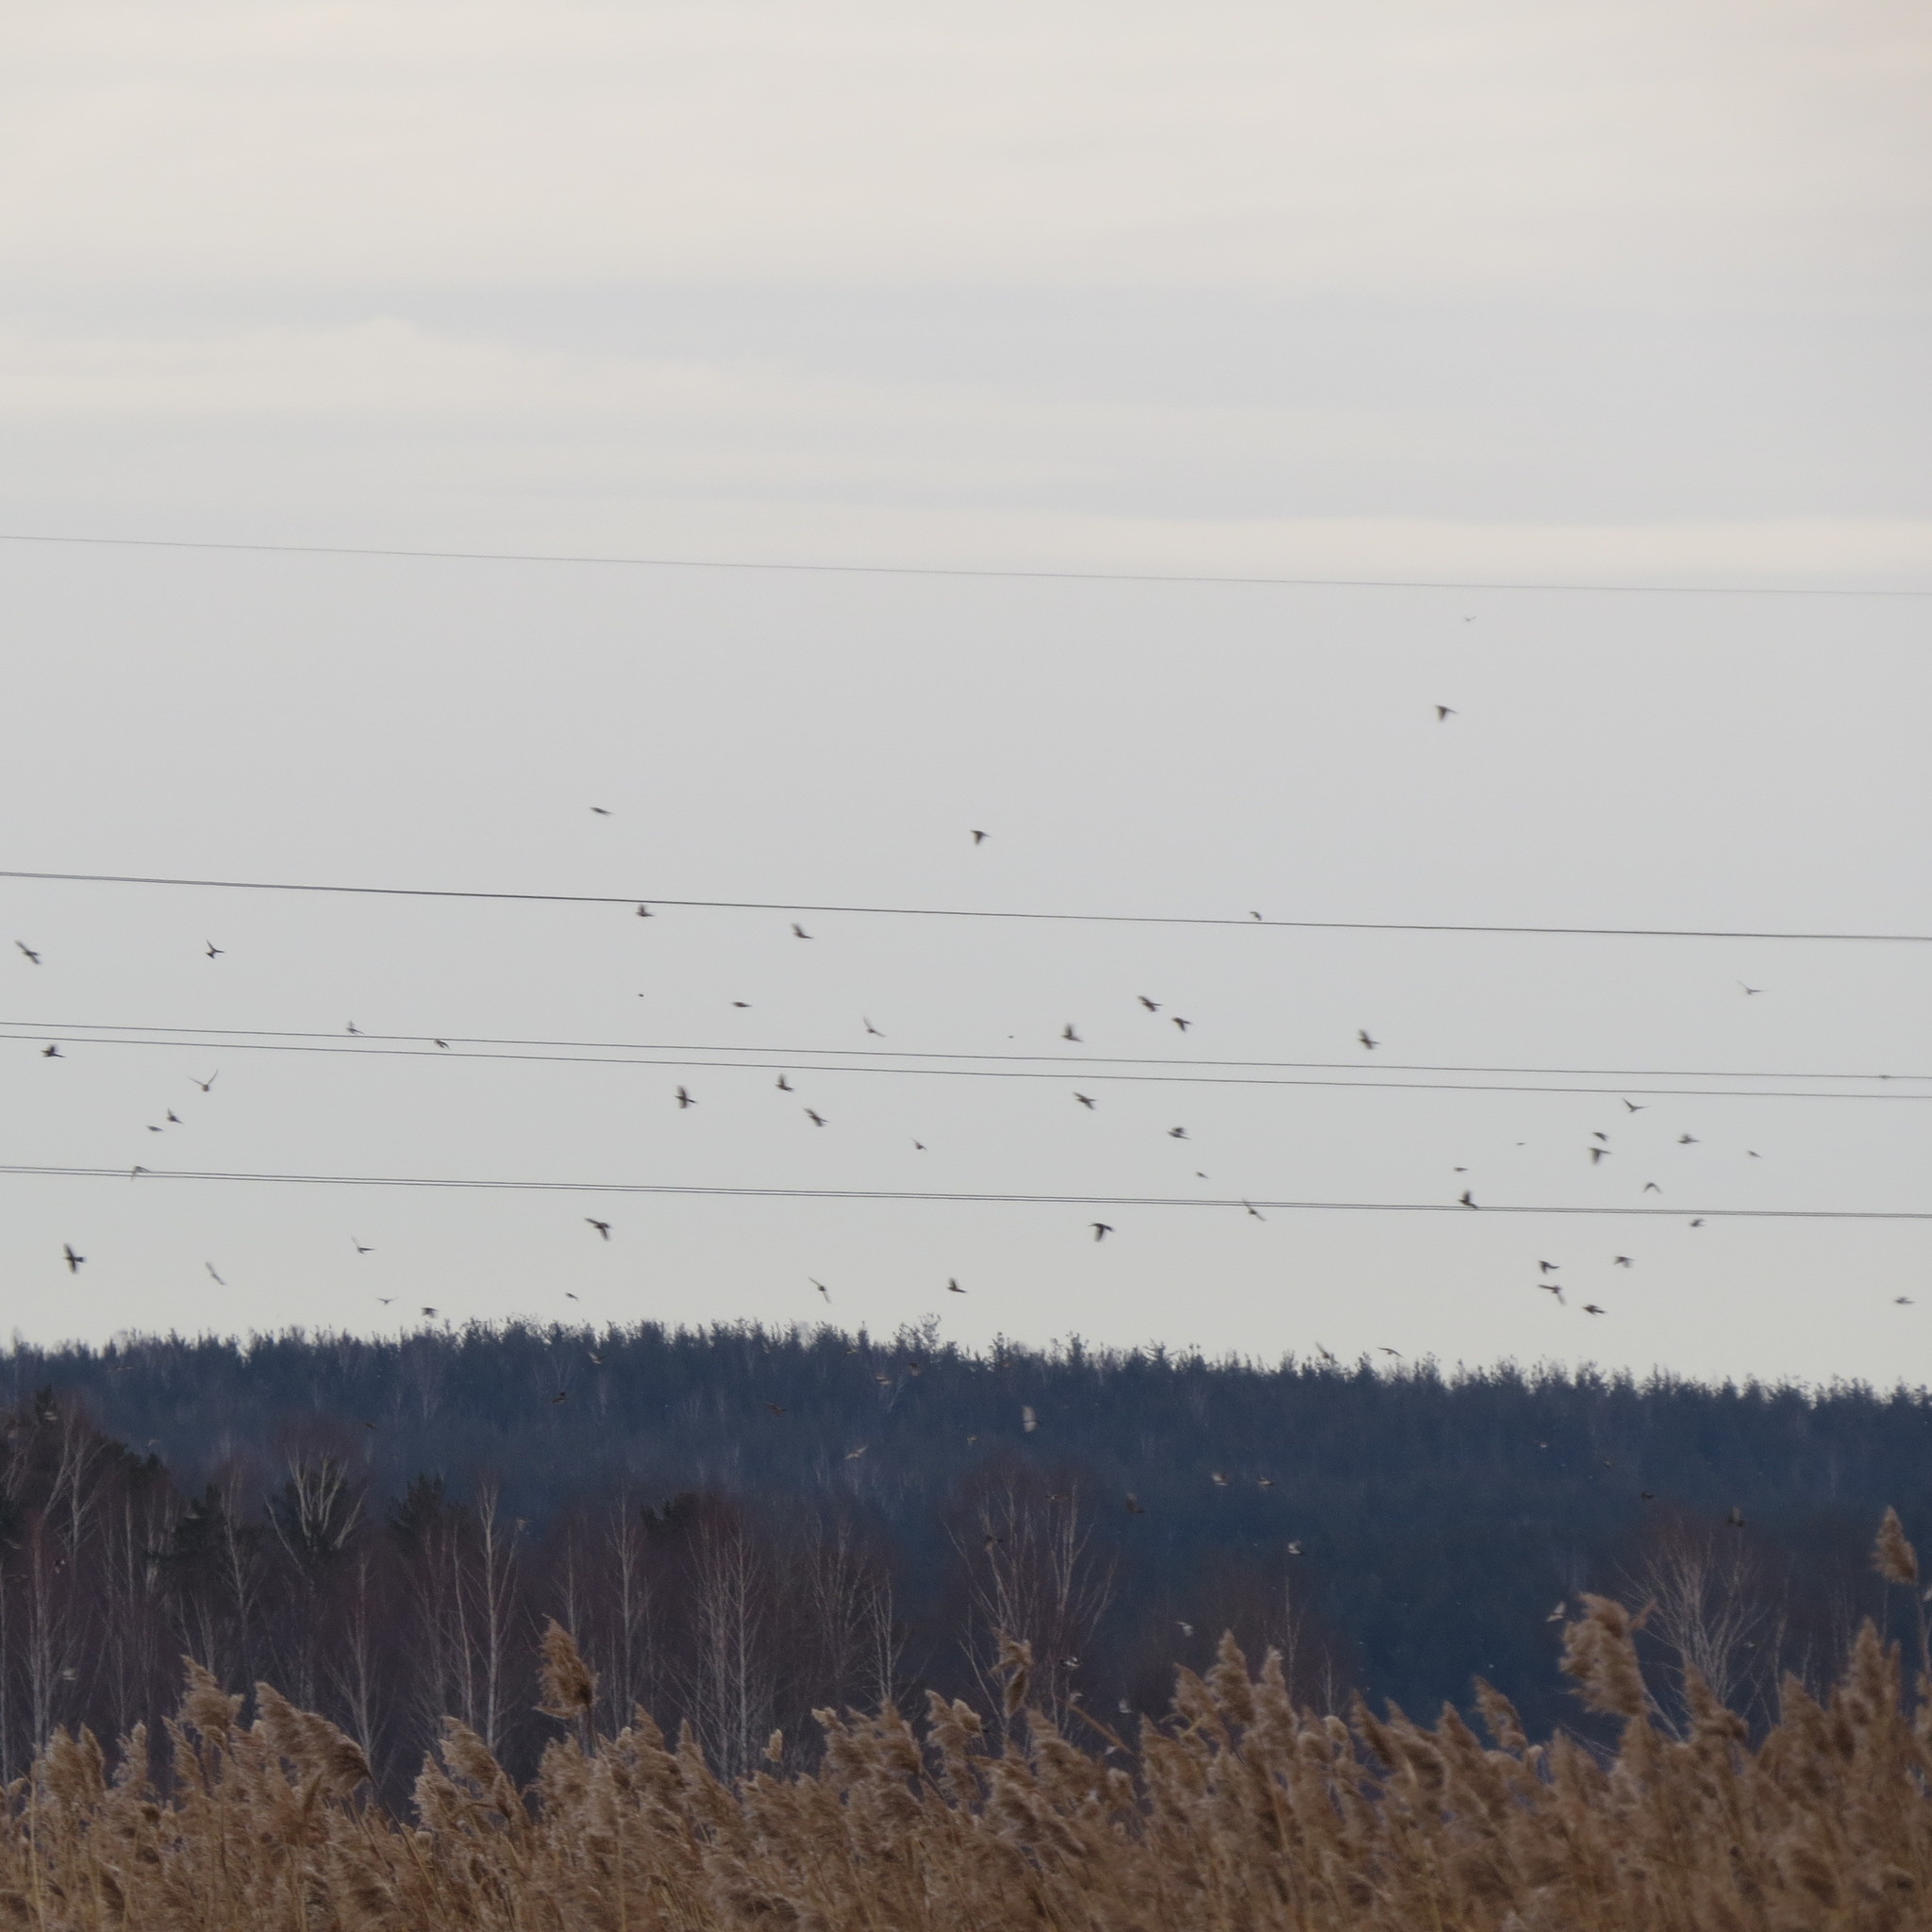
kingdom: Animalia
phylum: Chordata
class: Aves
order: Passeriformes
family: Turdidae
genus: Turdus
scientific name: Turdus pilaris
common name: Fieldfare
